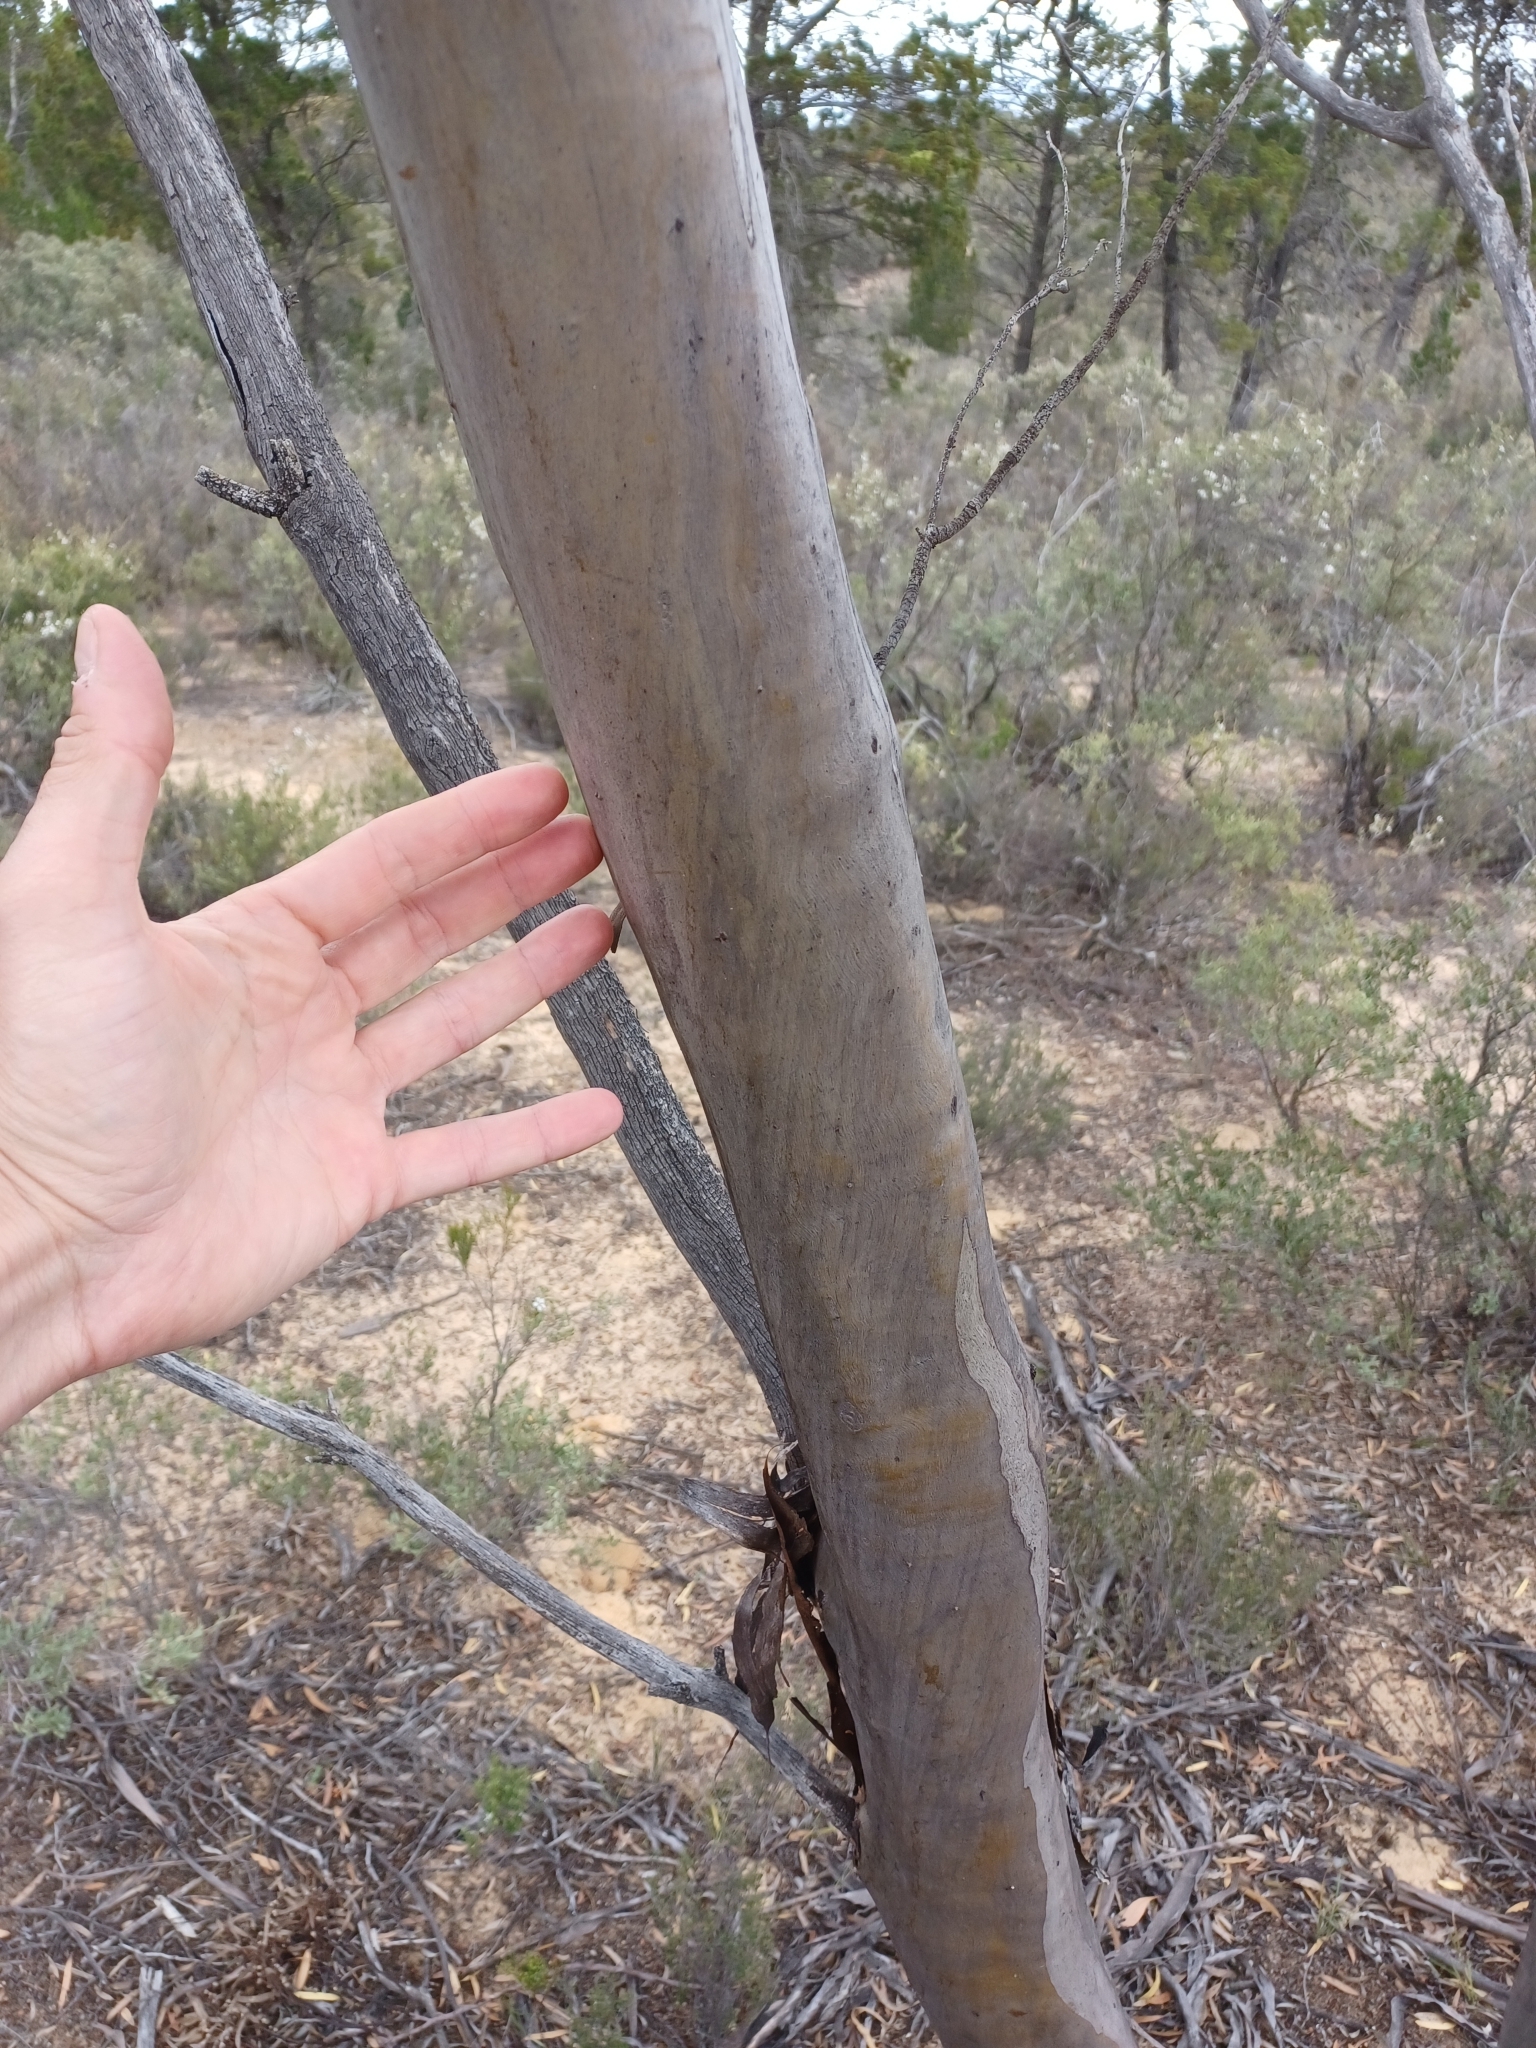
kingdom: Plantae
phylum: Tracheophyta
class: Magnoliopsida
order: Myrtales
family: Myrtaceae
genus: Eucalyptus
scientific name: Eucalyptus foecunda
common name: Freemantle mallee
